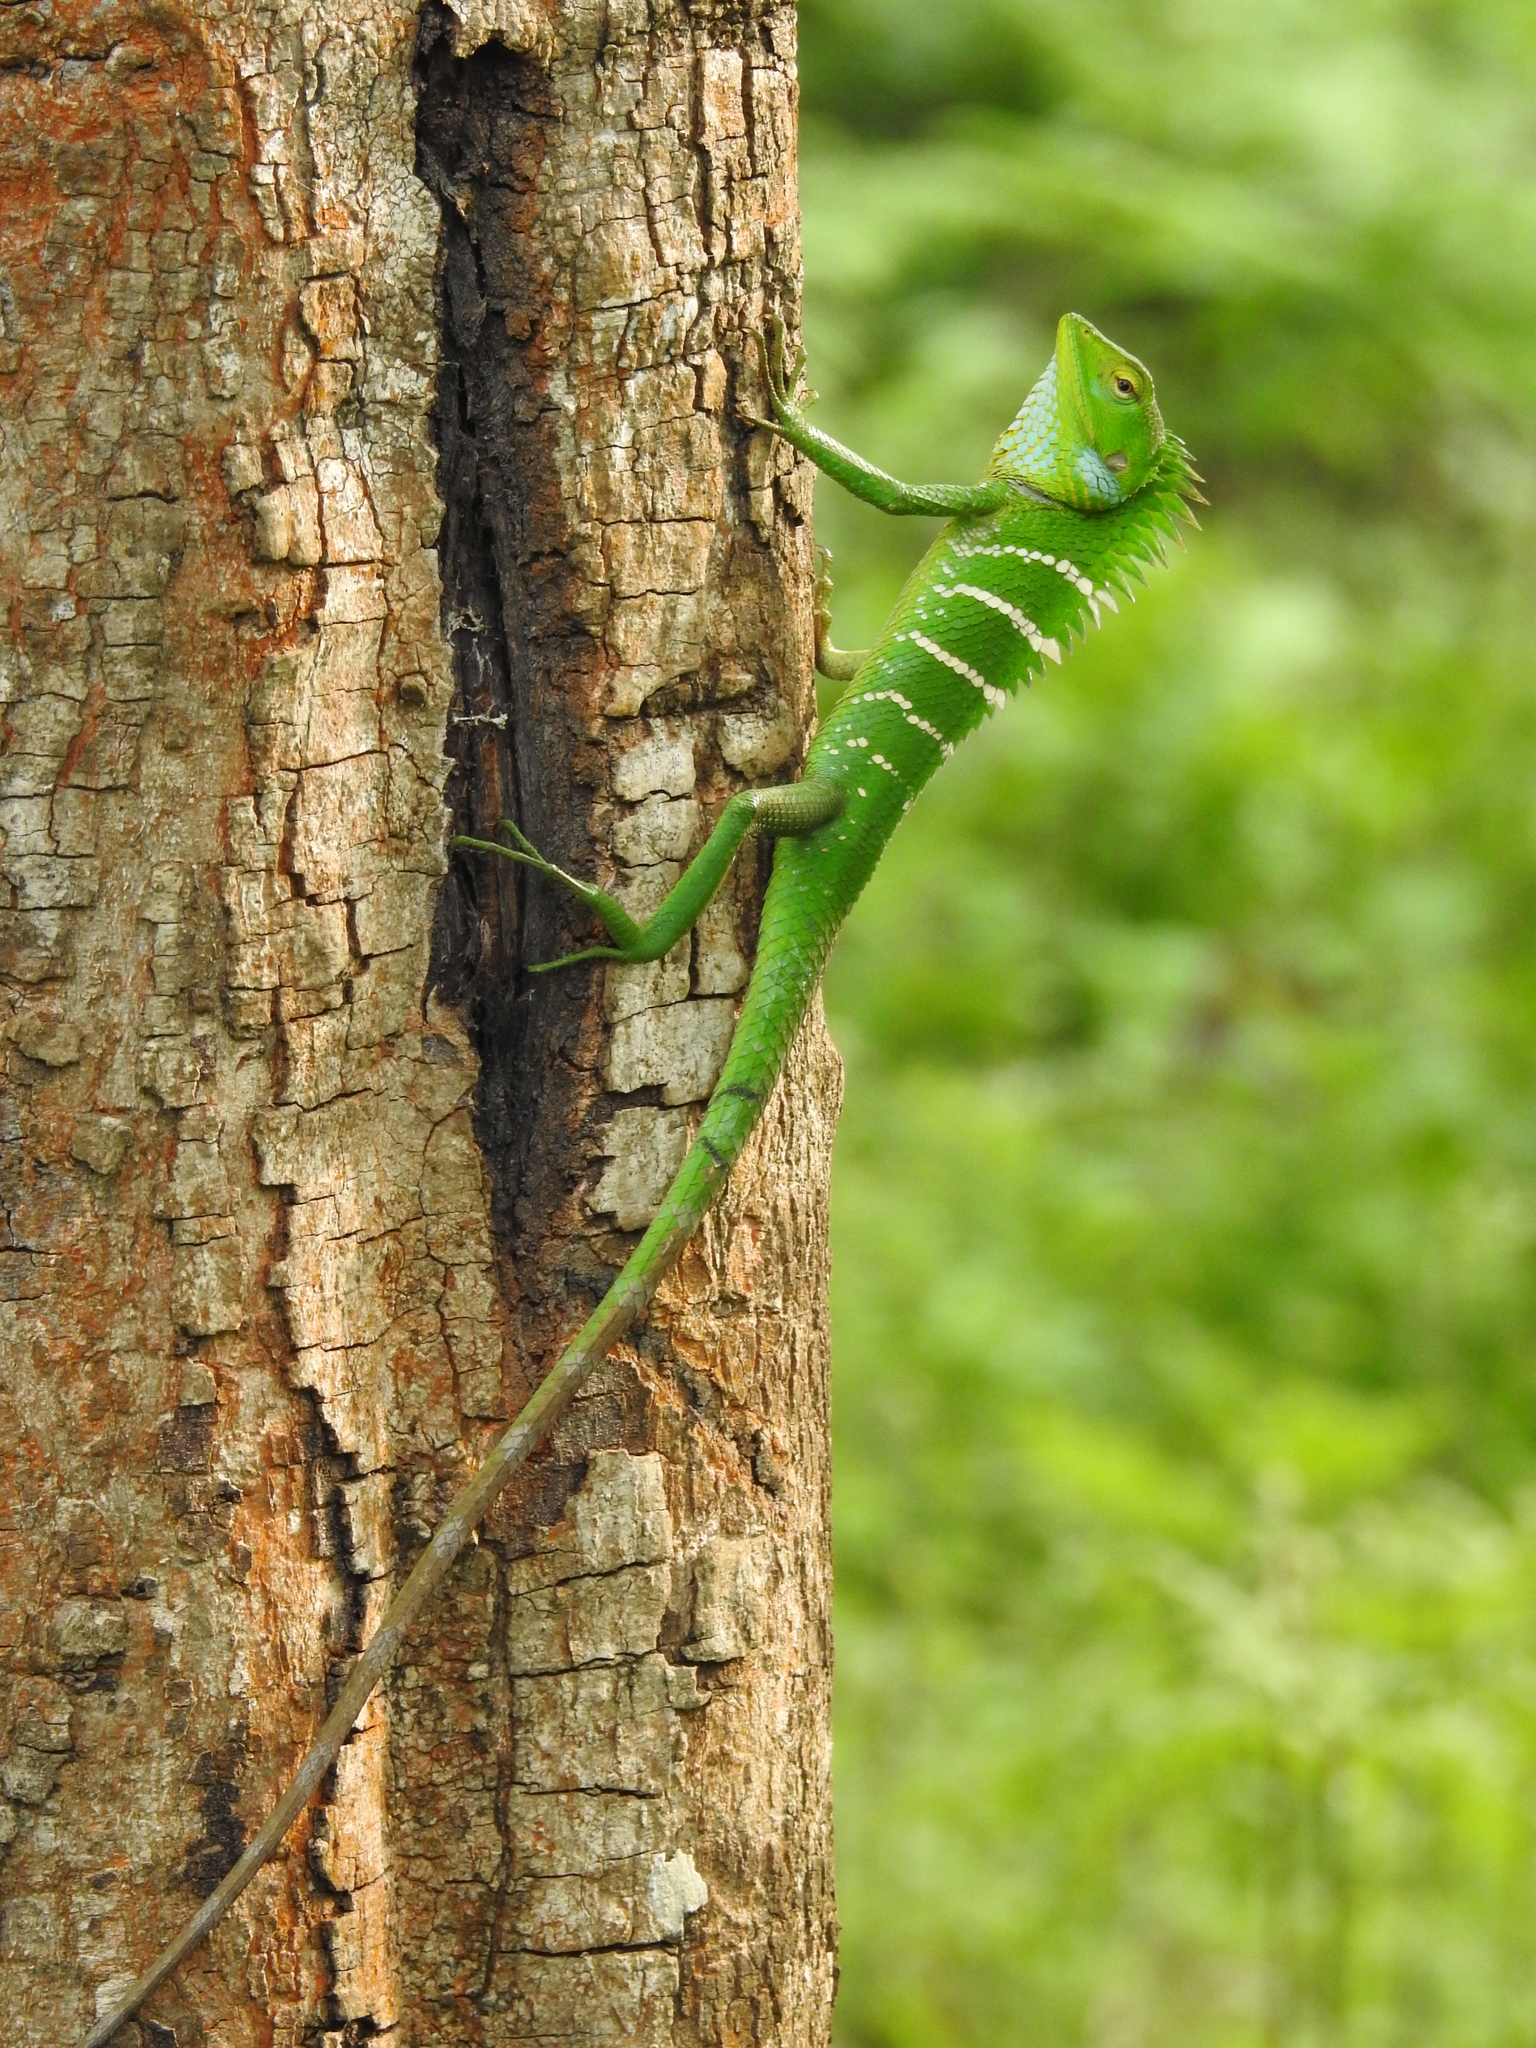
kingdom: Animalia
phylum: Chordata
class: Squamata
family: Agamidae
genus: Calotes
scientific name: Calotes calotes
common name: Common green forest lizard
